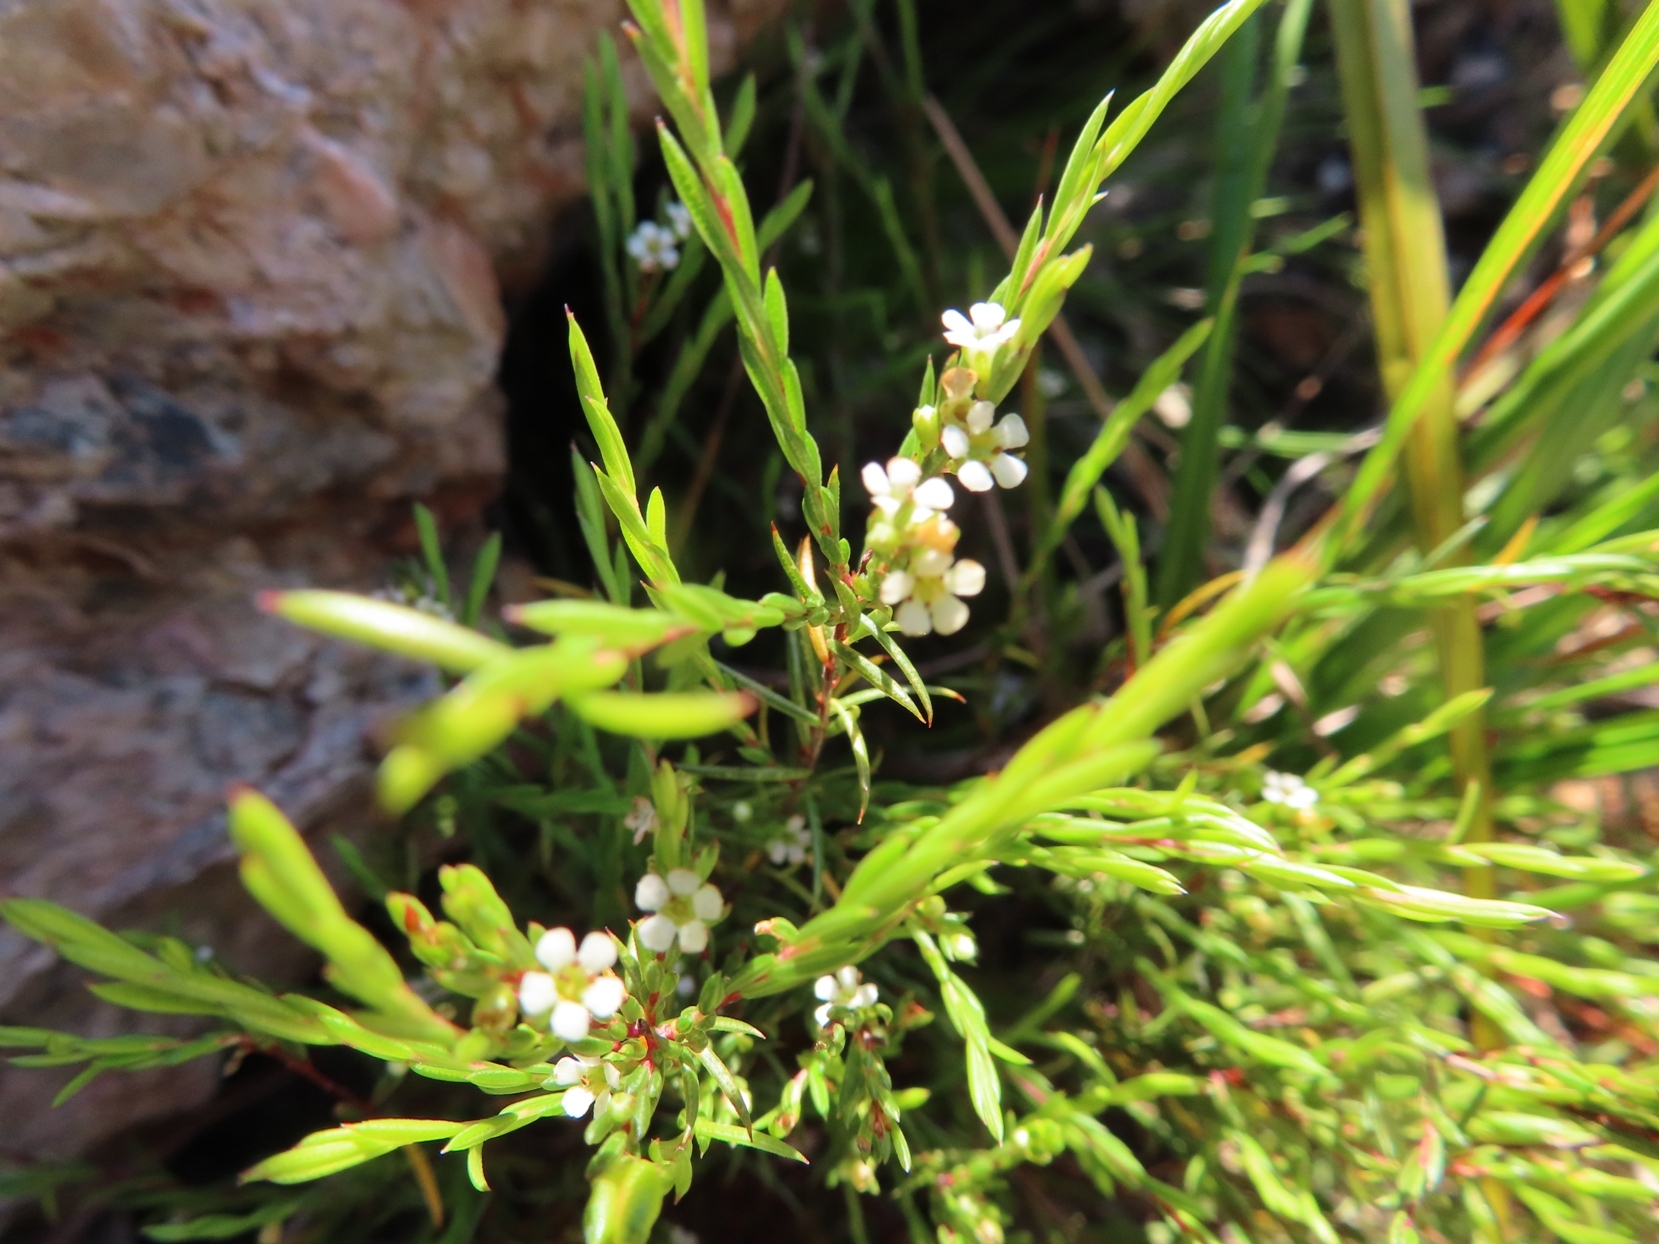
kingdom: Plantae
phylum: Tracheophyta
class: Magnoliopsida
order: Sapindales
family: Rutaceae
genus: Coleonema
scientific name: Coleonema juniperinum
